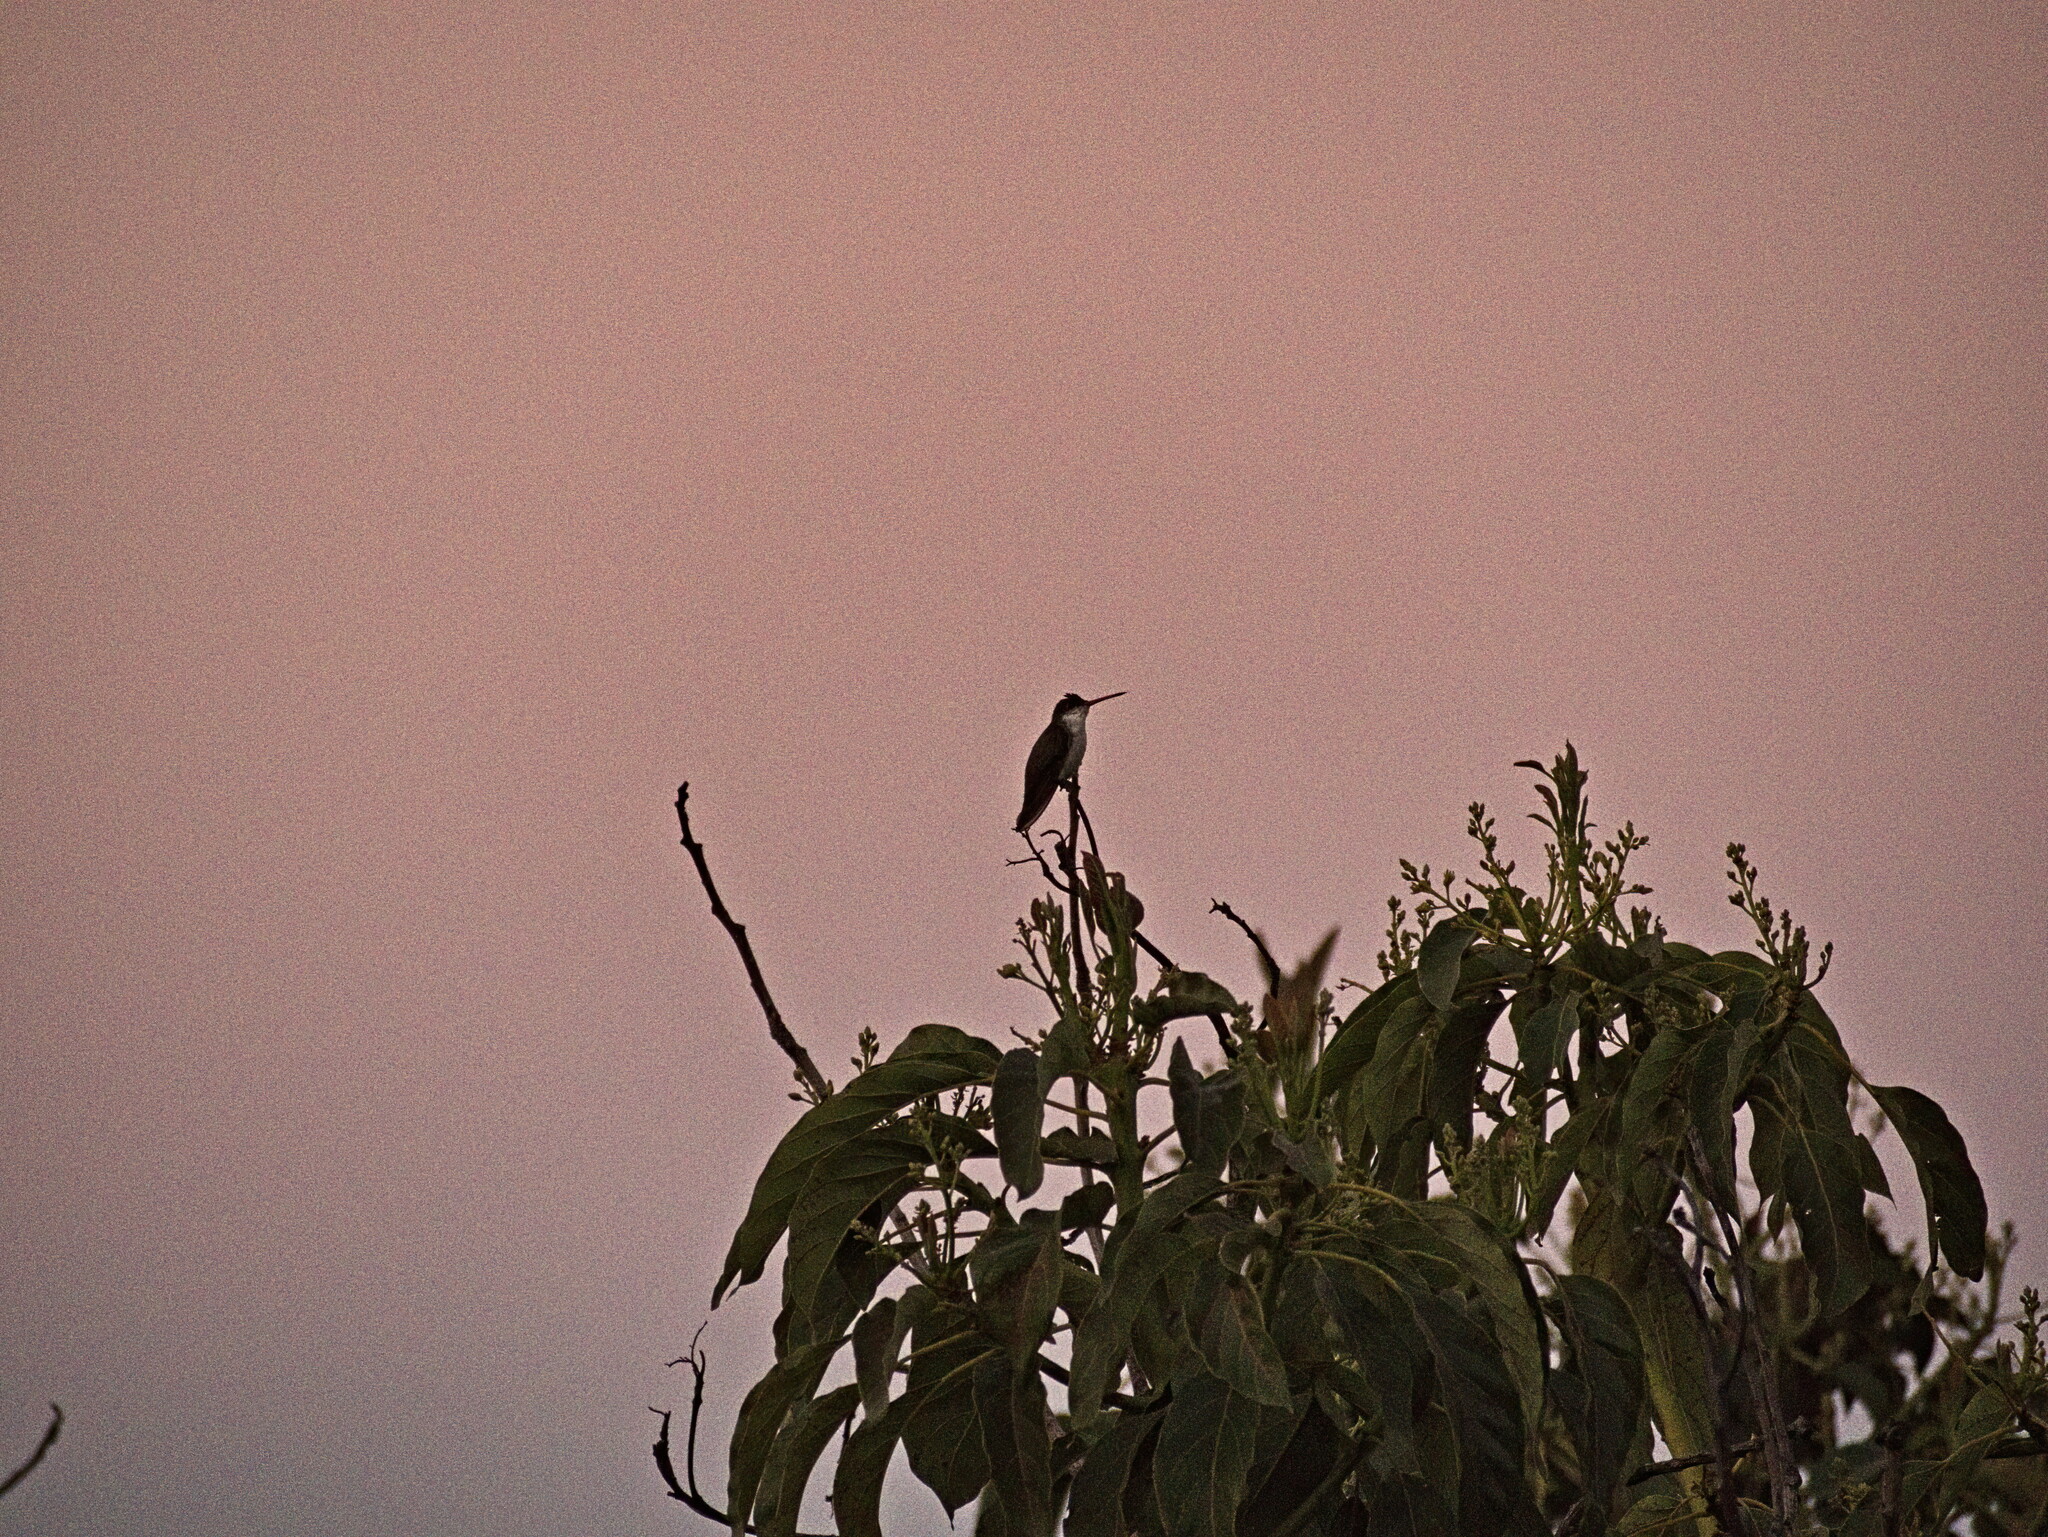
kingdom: Animalia
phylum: Chordata
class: Aves
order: Apodiformes
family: Trochilidae
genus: Leucolia
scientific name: Leucolia violiceps
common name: Violet-crowned hummingbird
